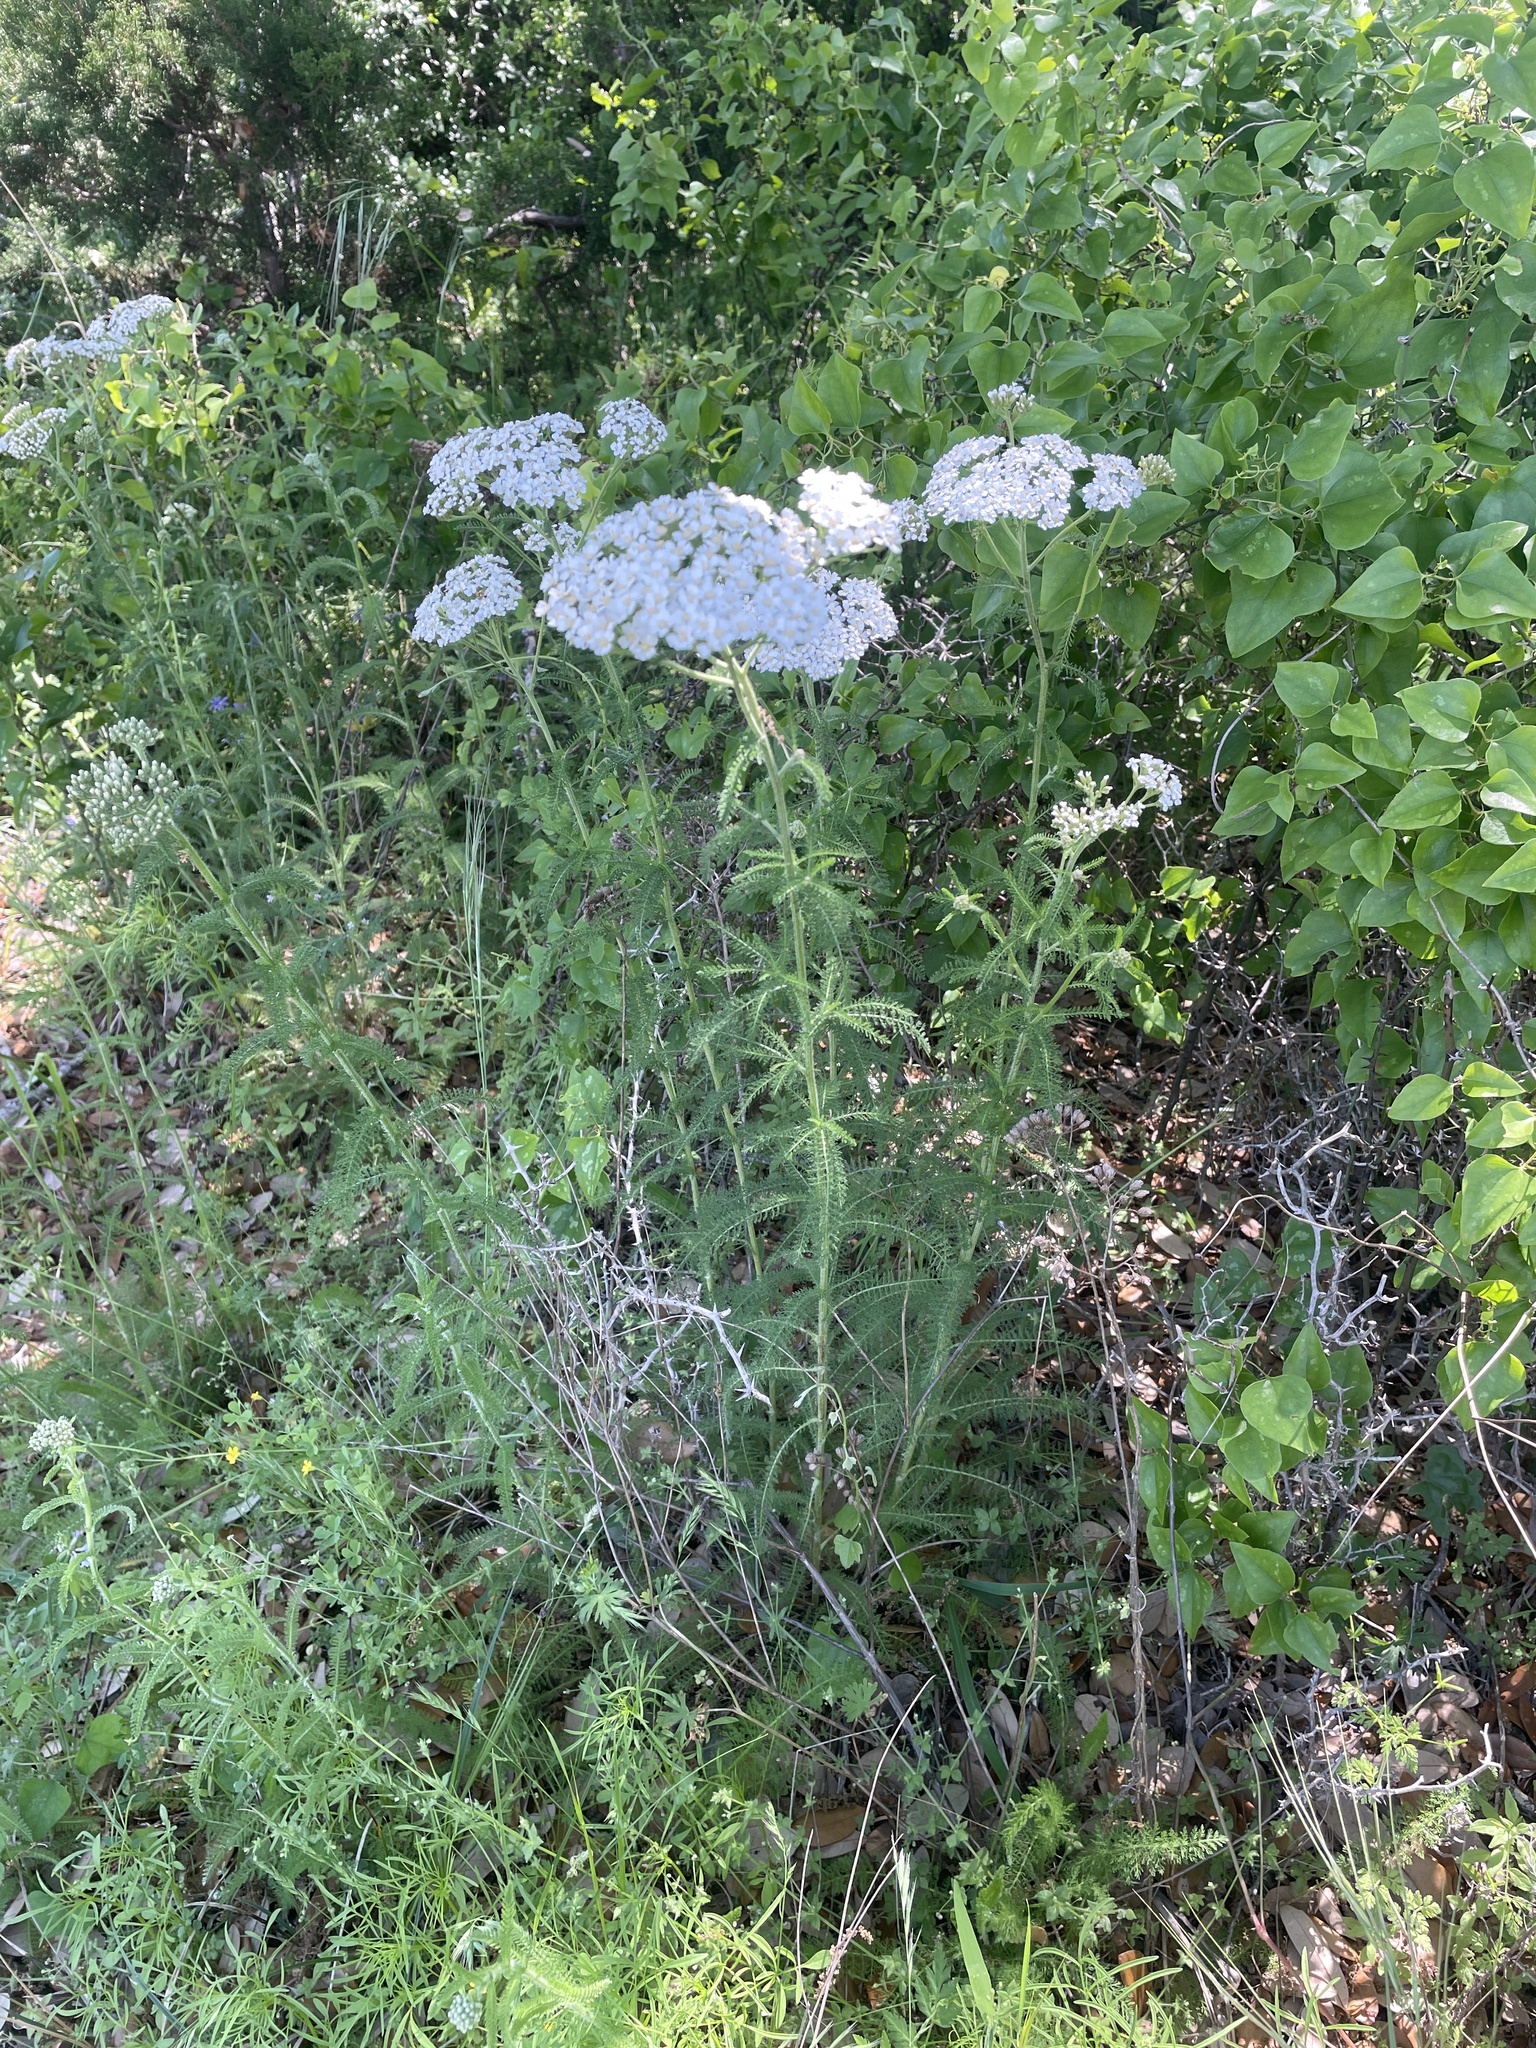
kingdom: Plantae
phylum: Tracheophyta
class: Magnoliopsida
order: Asterales
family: Asteraceae
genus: Achillea
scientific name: Achillea millefolium
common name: Yarrow
